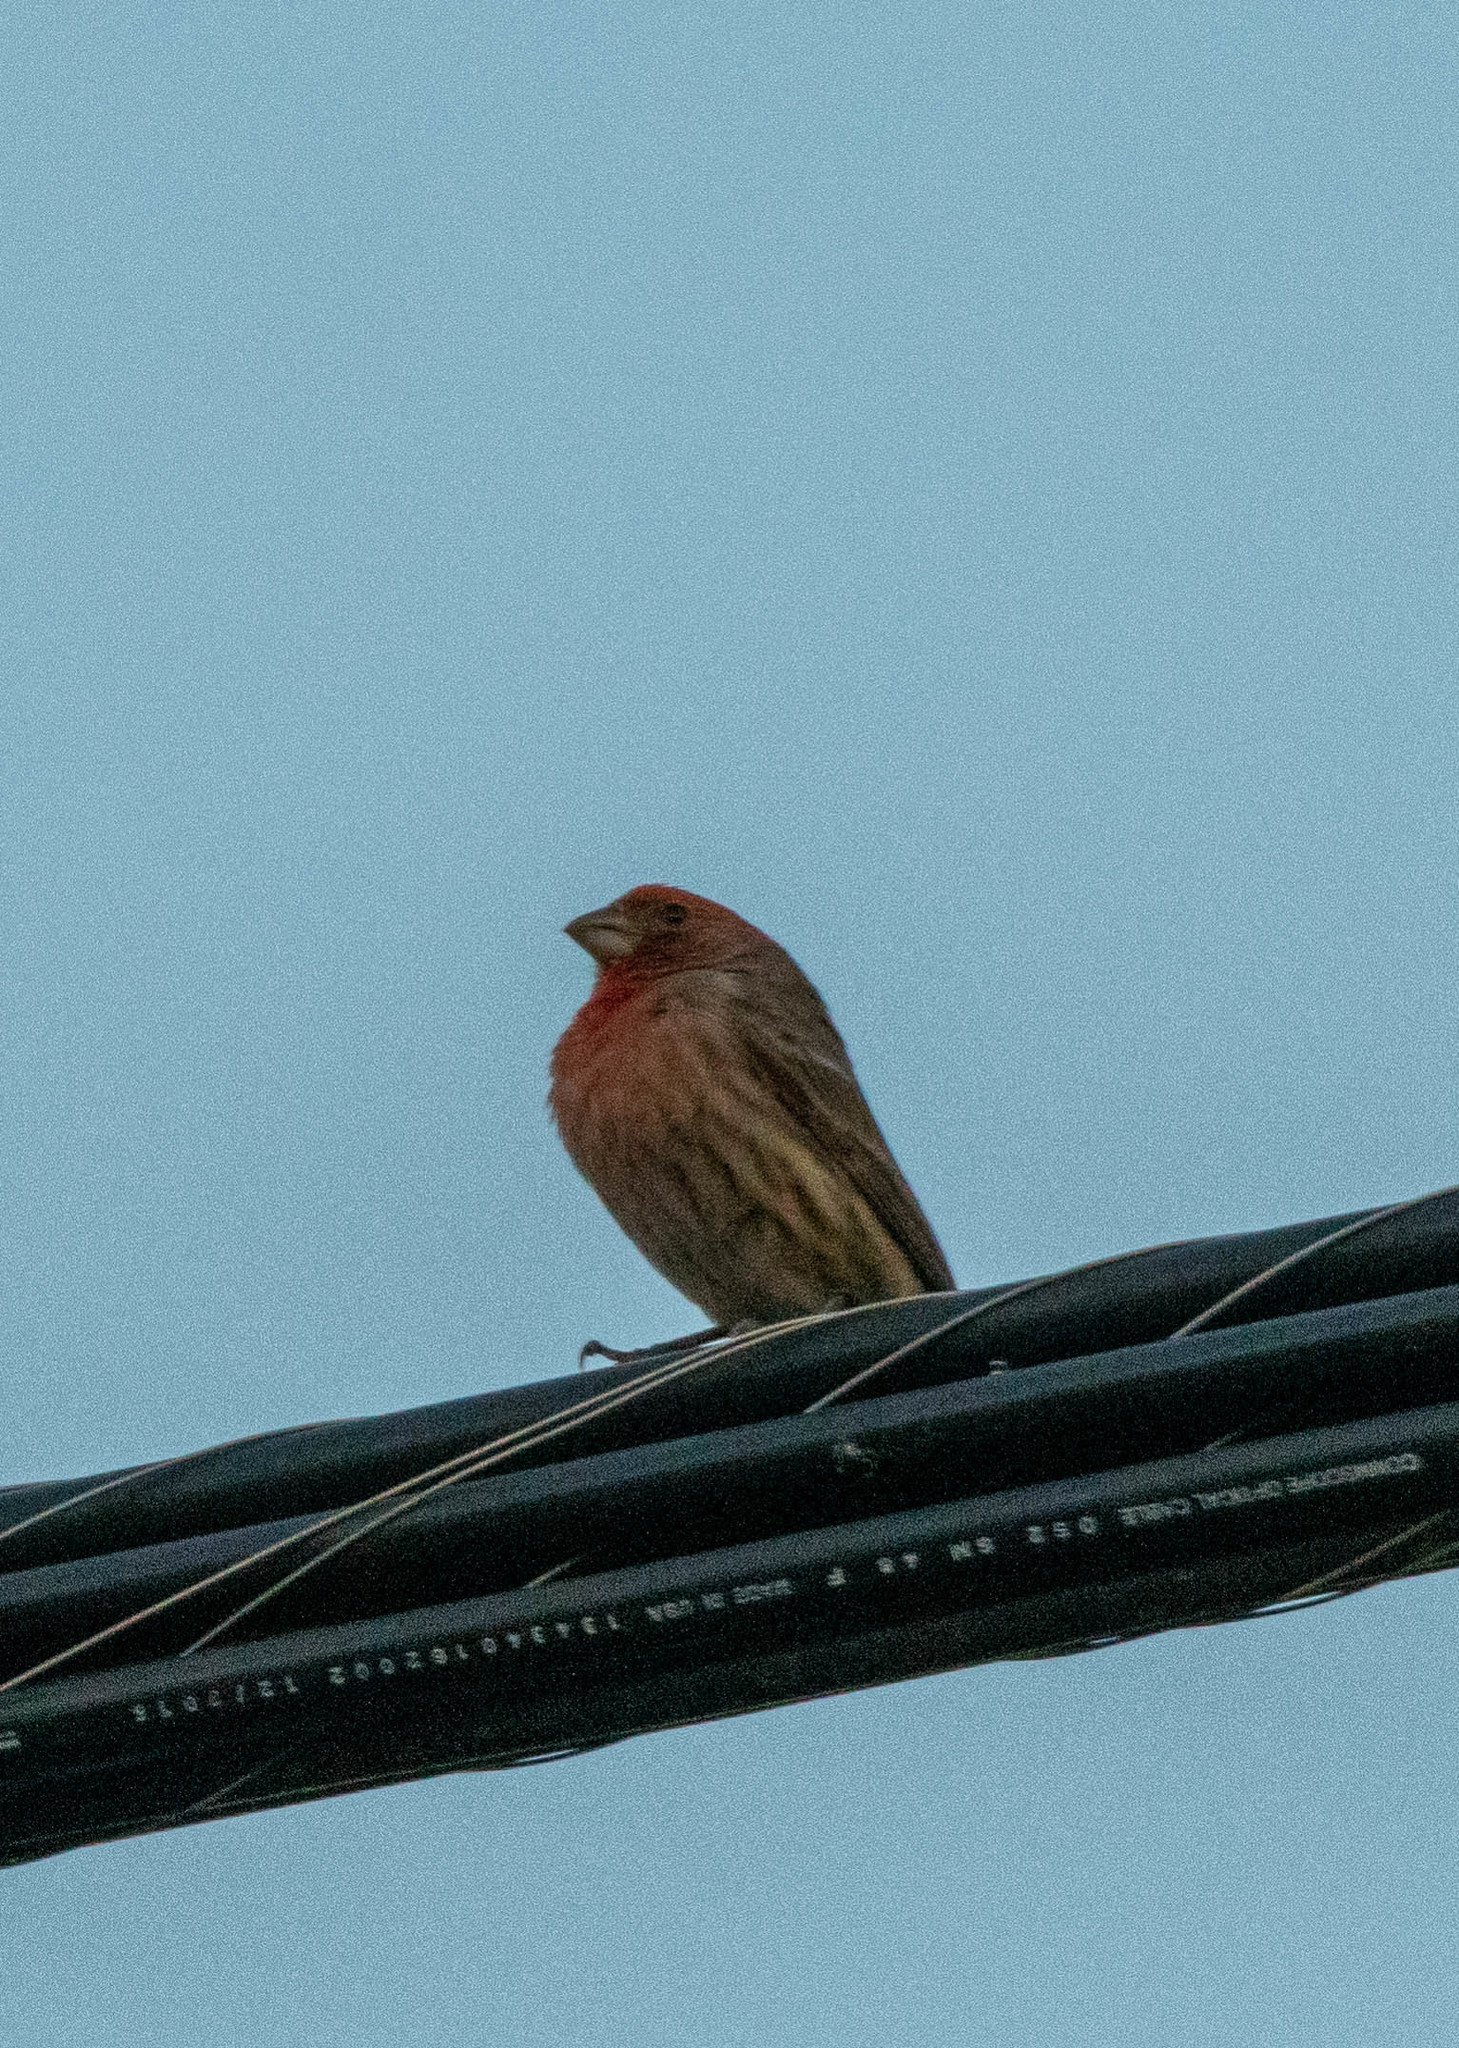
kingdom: Animalia
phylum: Chordata
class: Aves
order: Passeriformes
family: Fringillidae
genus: Haemorhous
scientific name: Haemorhous mexicanus
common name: House finch
